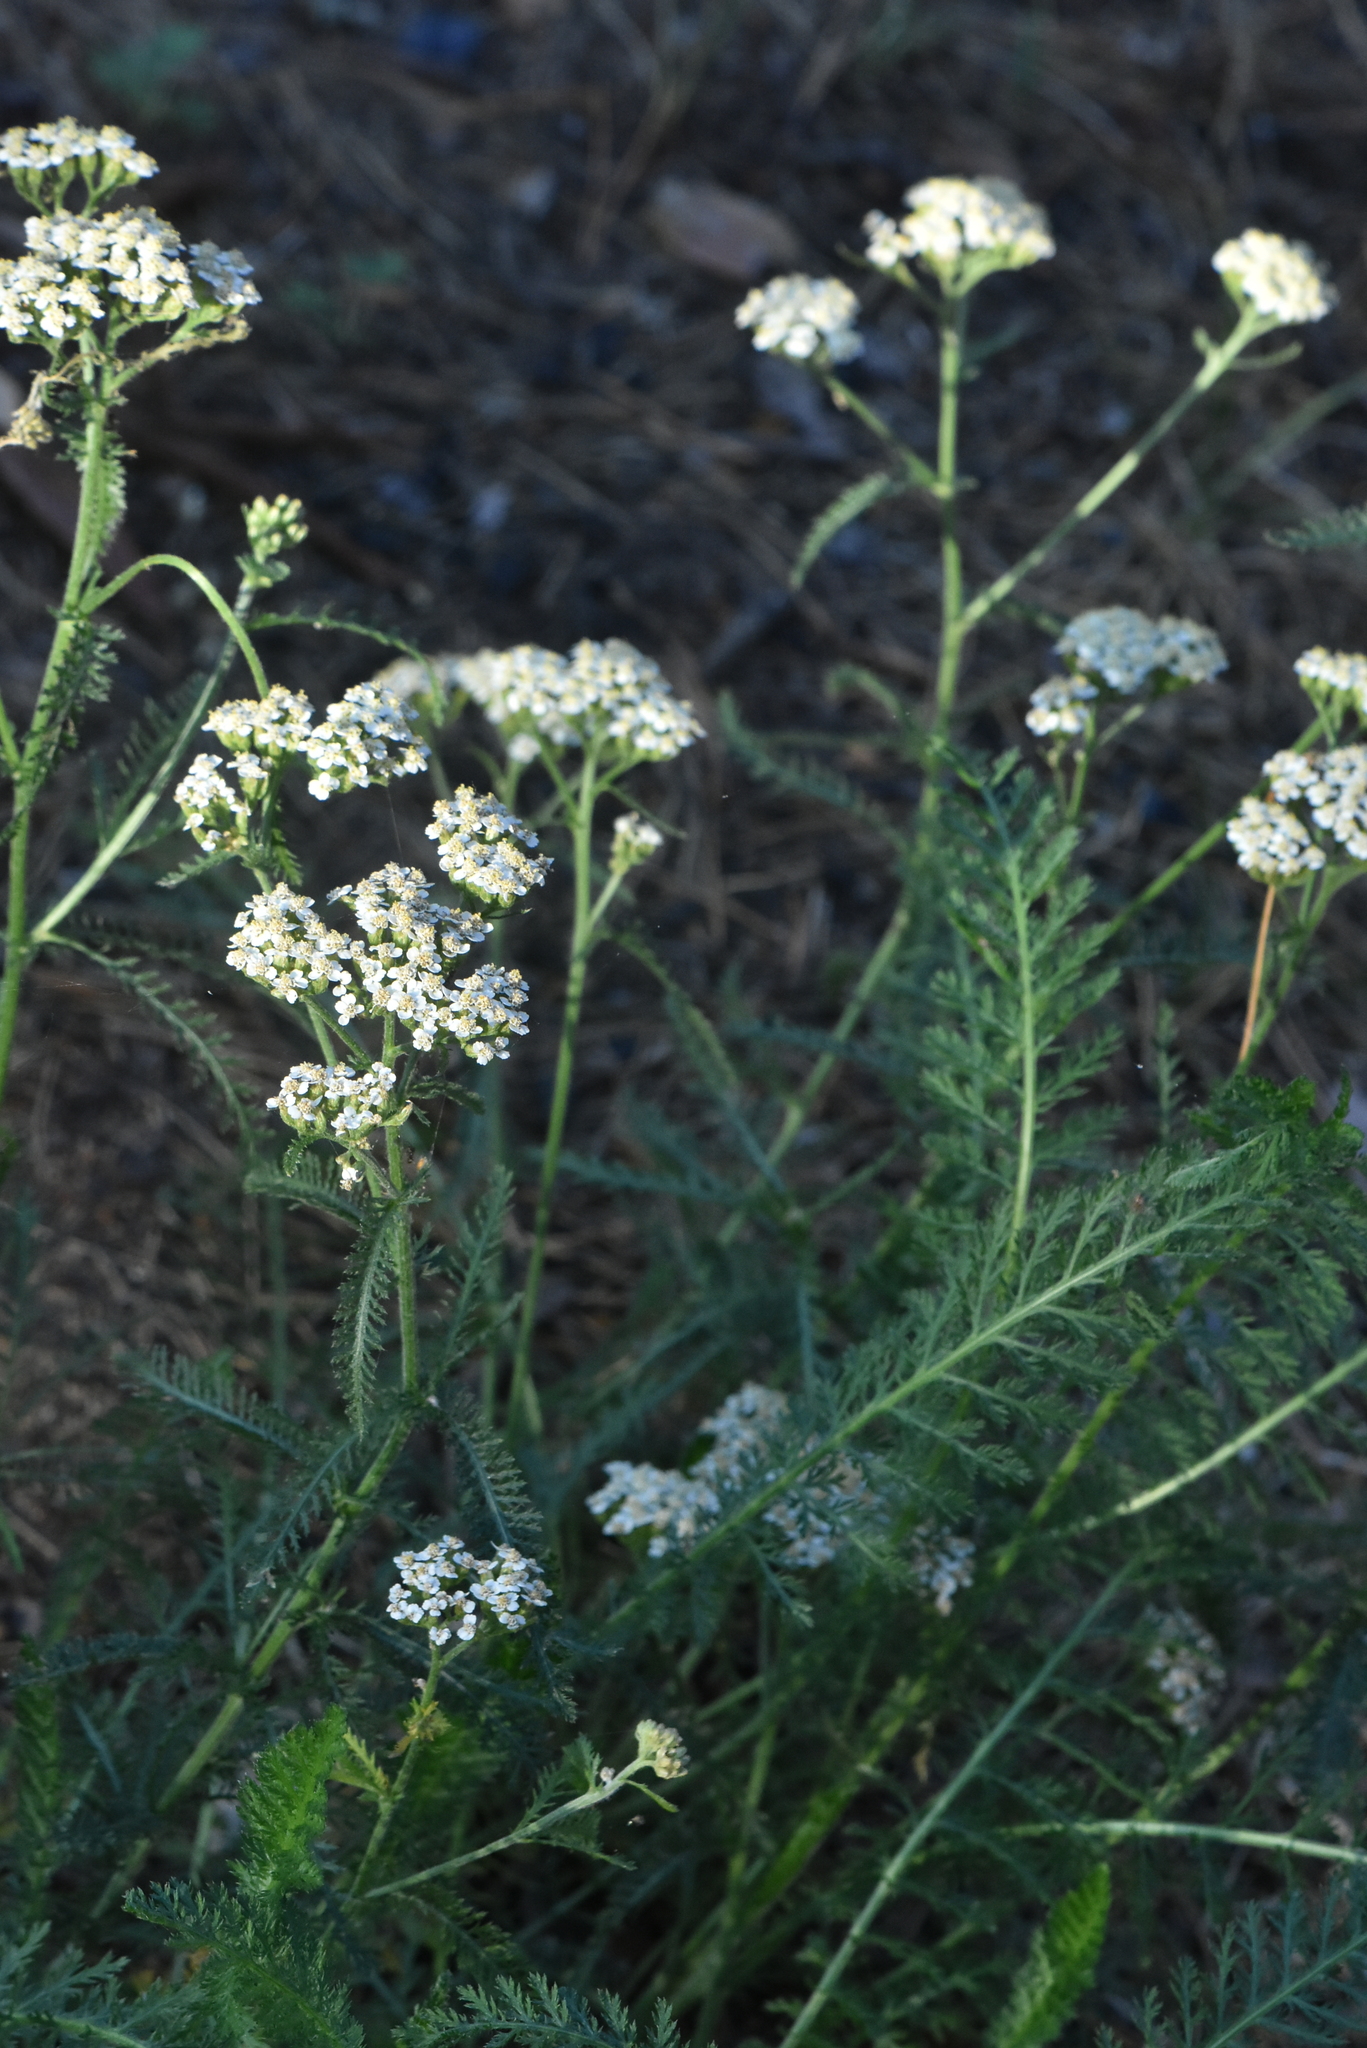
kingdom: Plantae
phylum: Tracheophyta
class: Magnoliopsida
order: Asterales
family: Asteraceae
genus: Achillea
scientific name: Achillea millefolium
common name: Yarrow
